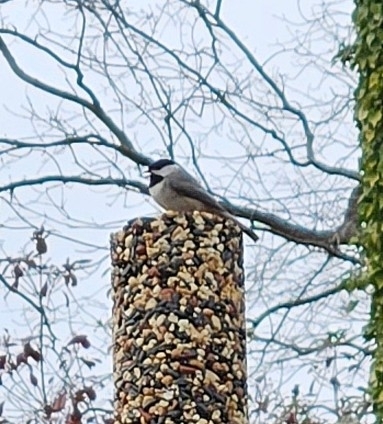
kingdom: Animalia
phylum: Chordata
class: Aves
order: Passeriformes
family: Paridae
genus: Poecile
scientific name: Poecile carolinensis
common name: Carolina chickadee
